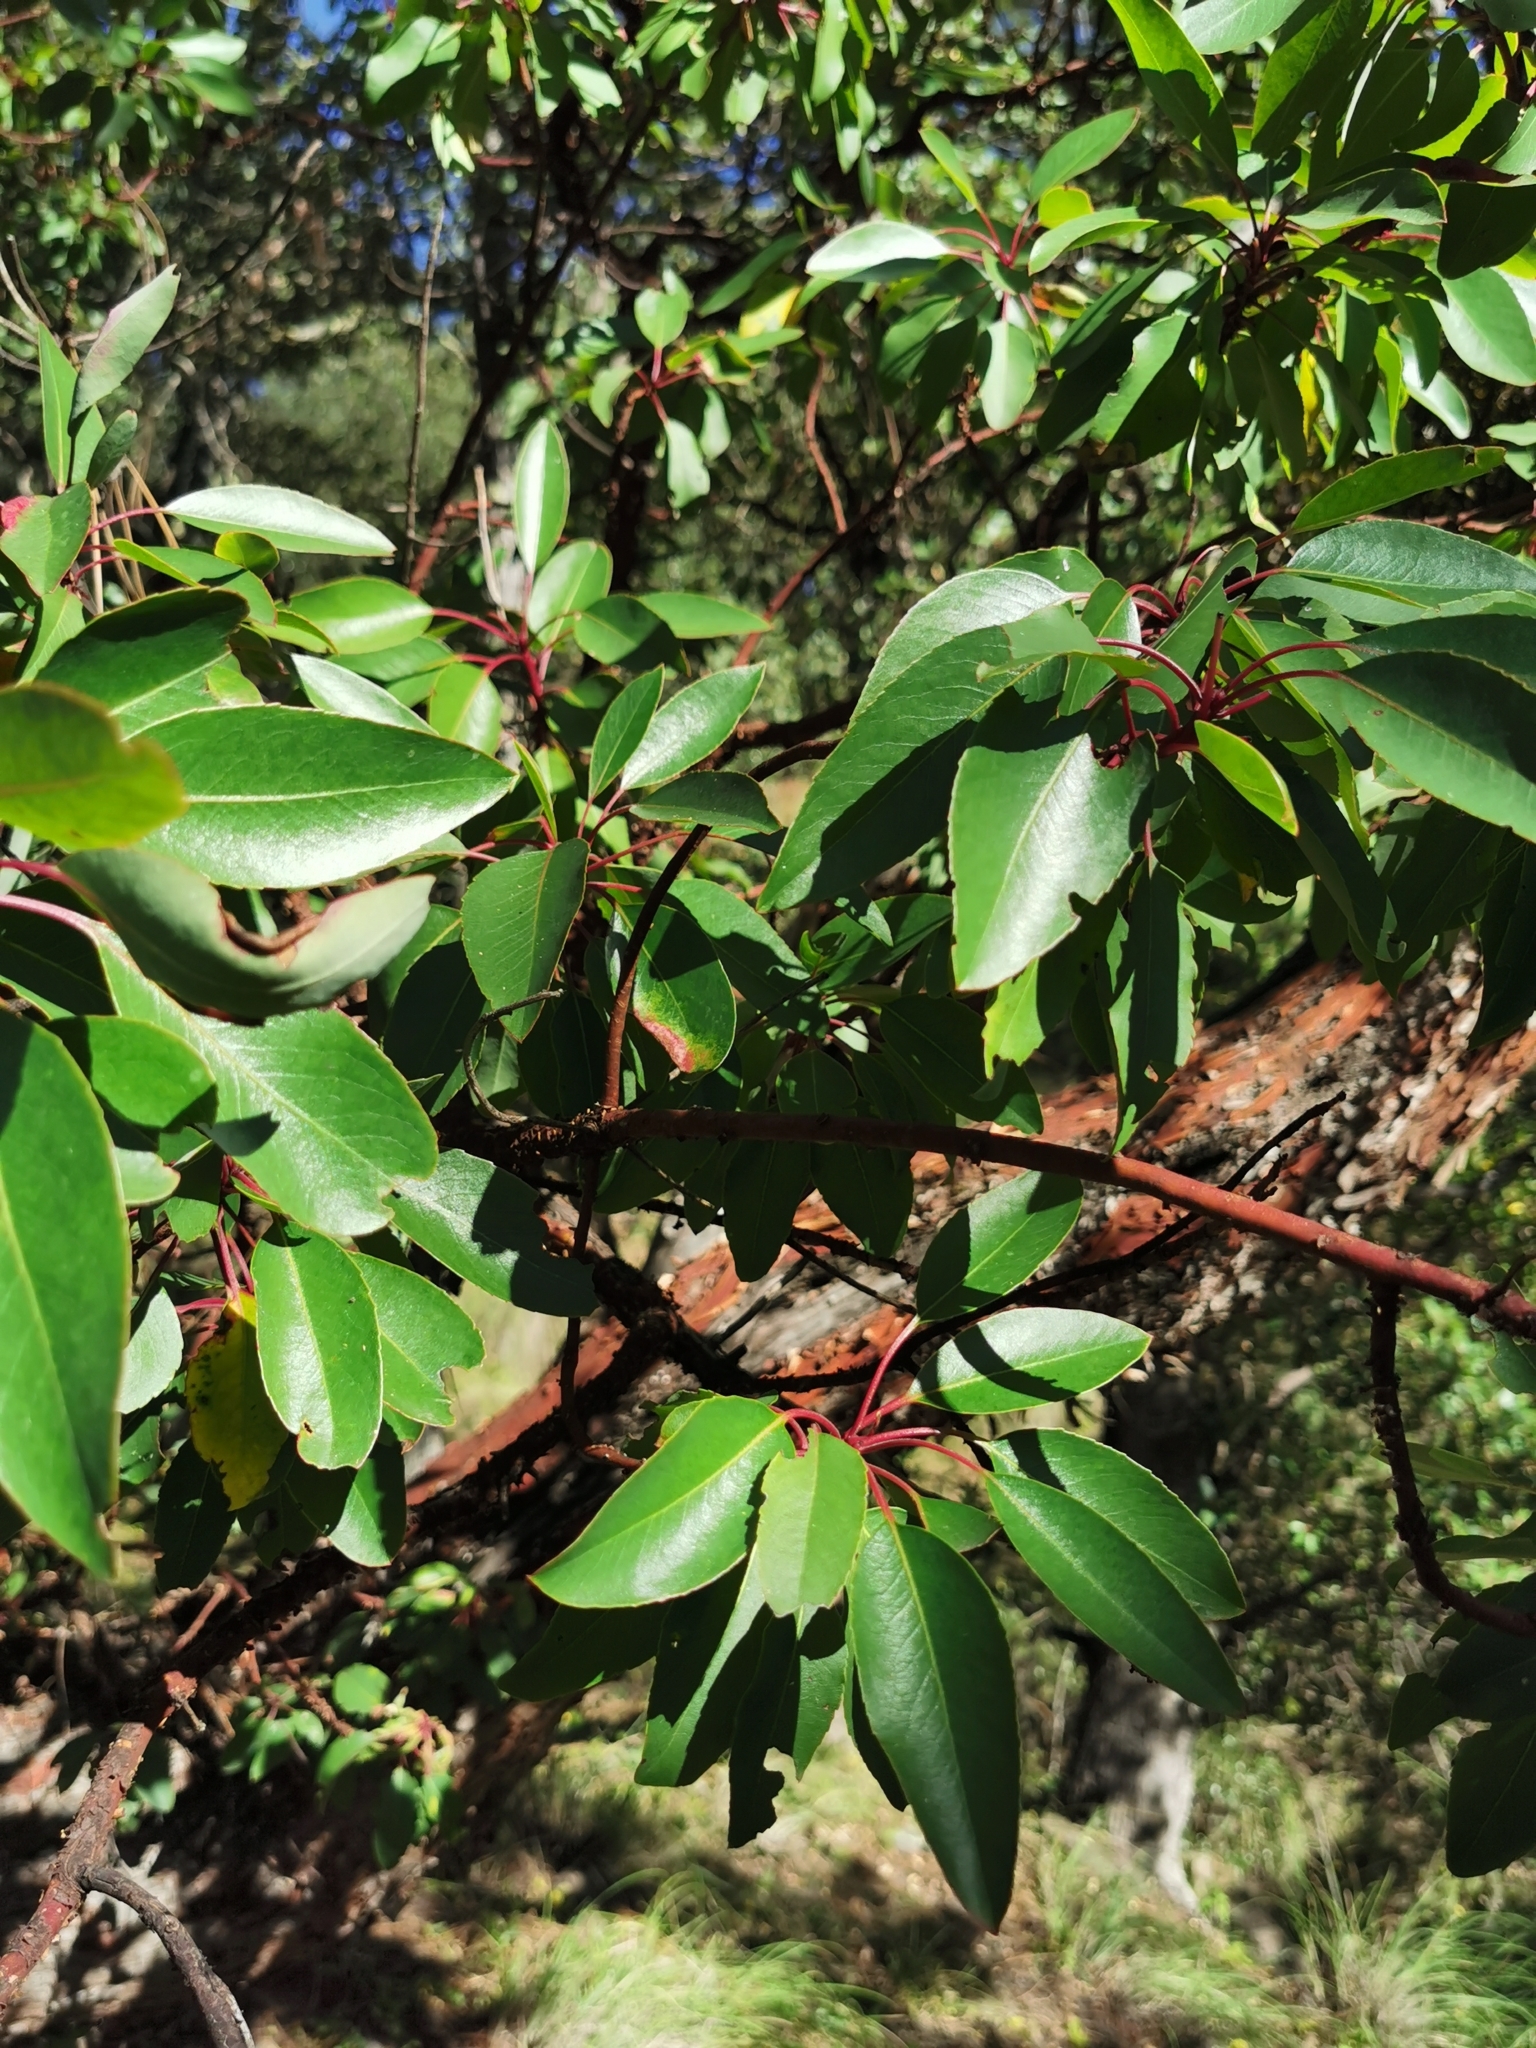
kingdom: Plantae
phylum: Tracheophyta
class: Magnoliopsida
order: Ericales
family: Ericaceae
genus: Arbutus
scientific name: Arbutus arizonica
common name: Arizona madrone
